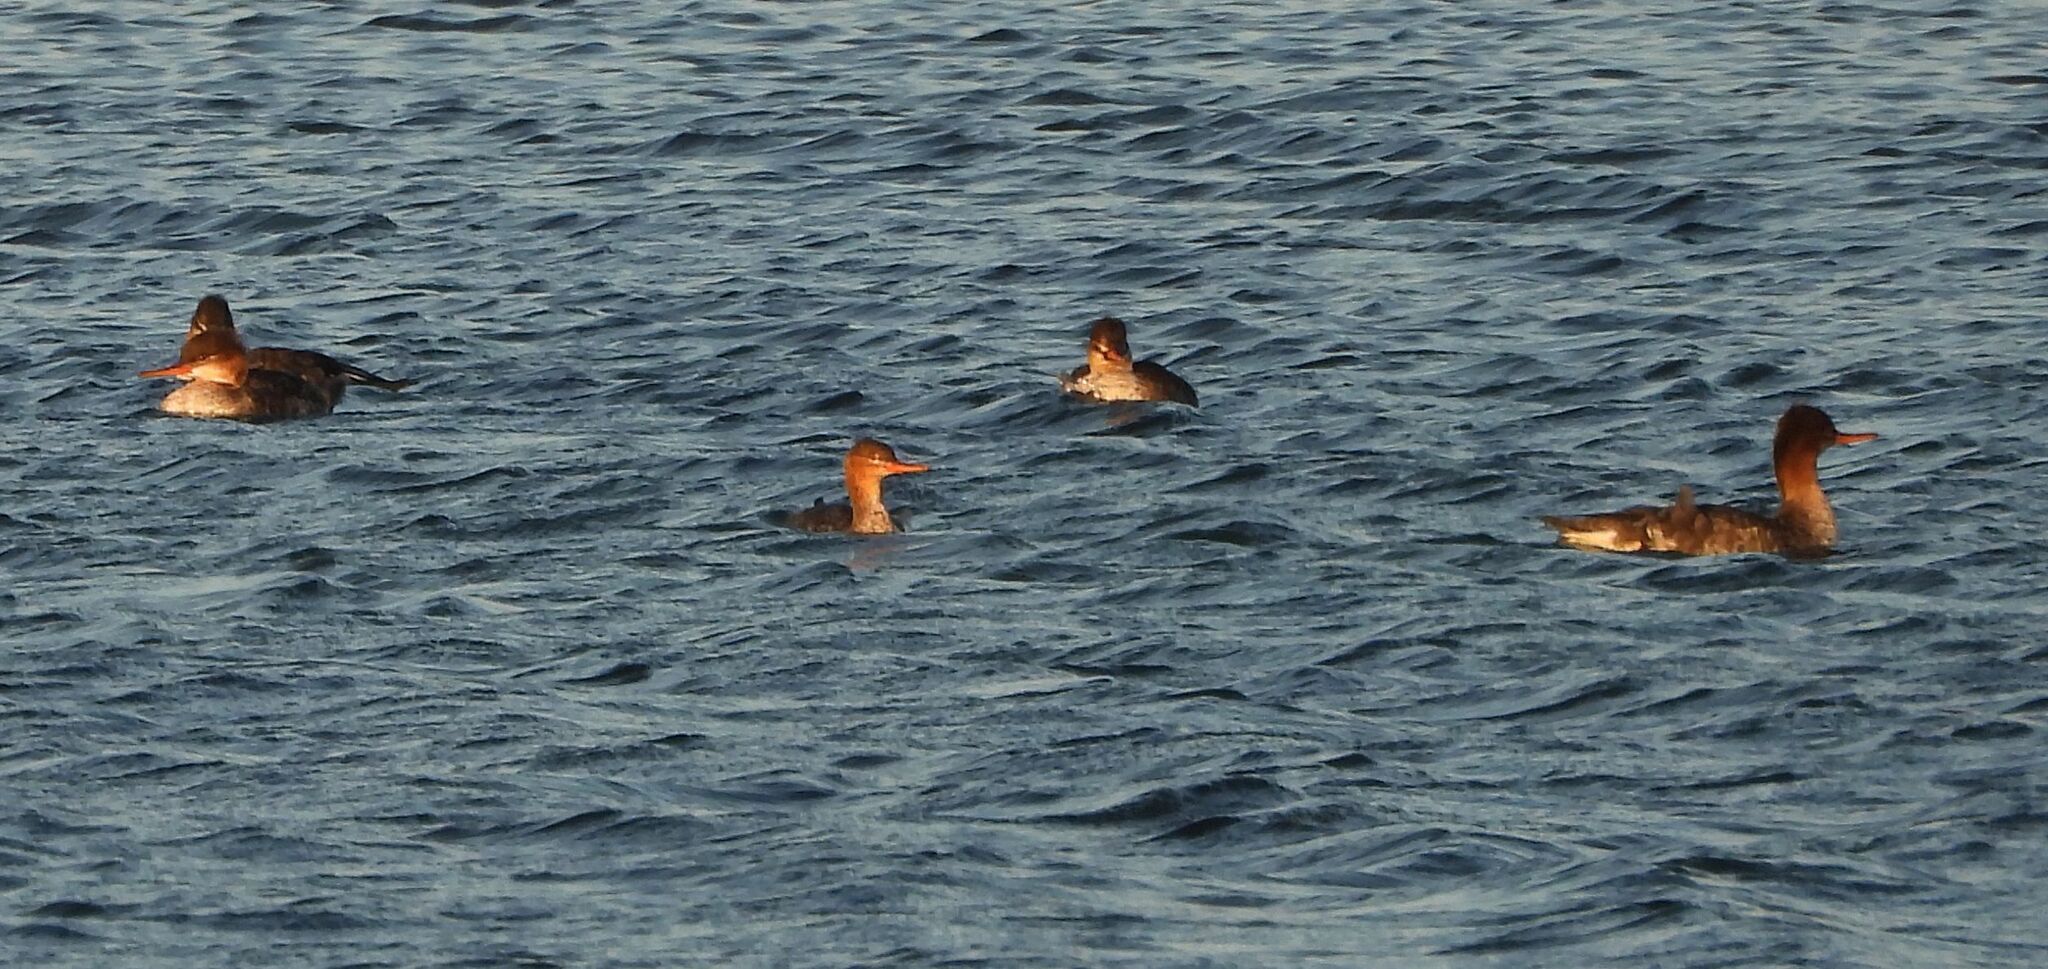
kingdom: Animalia
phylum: Chordata
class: Aves
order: Anseriformes
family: Anatidae
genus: Mergus
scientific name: Mergus serrator
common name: Red-breasted merganser
